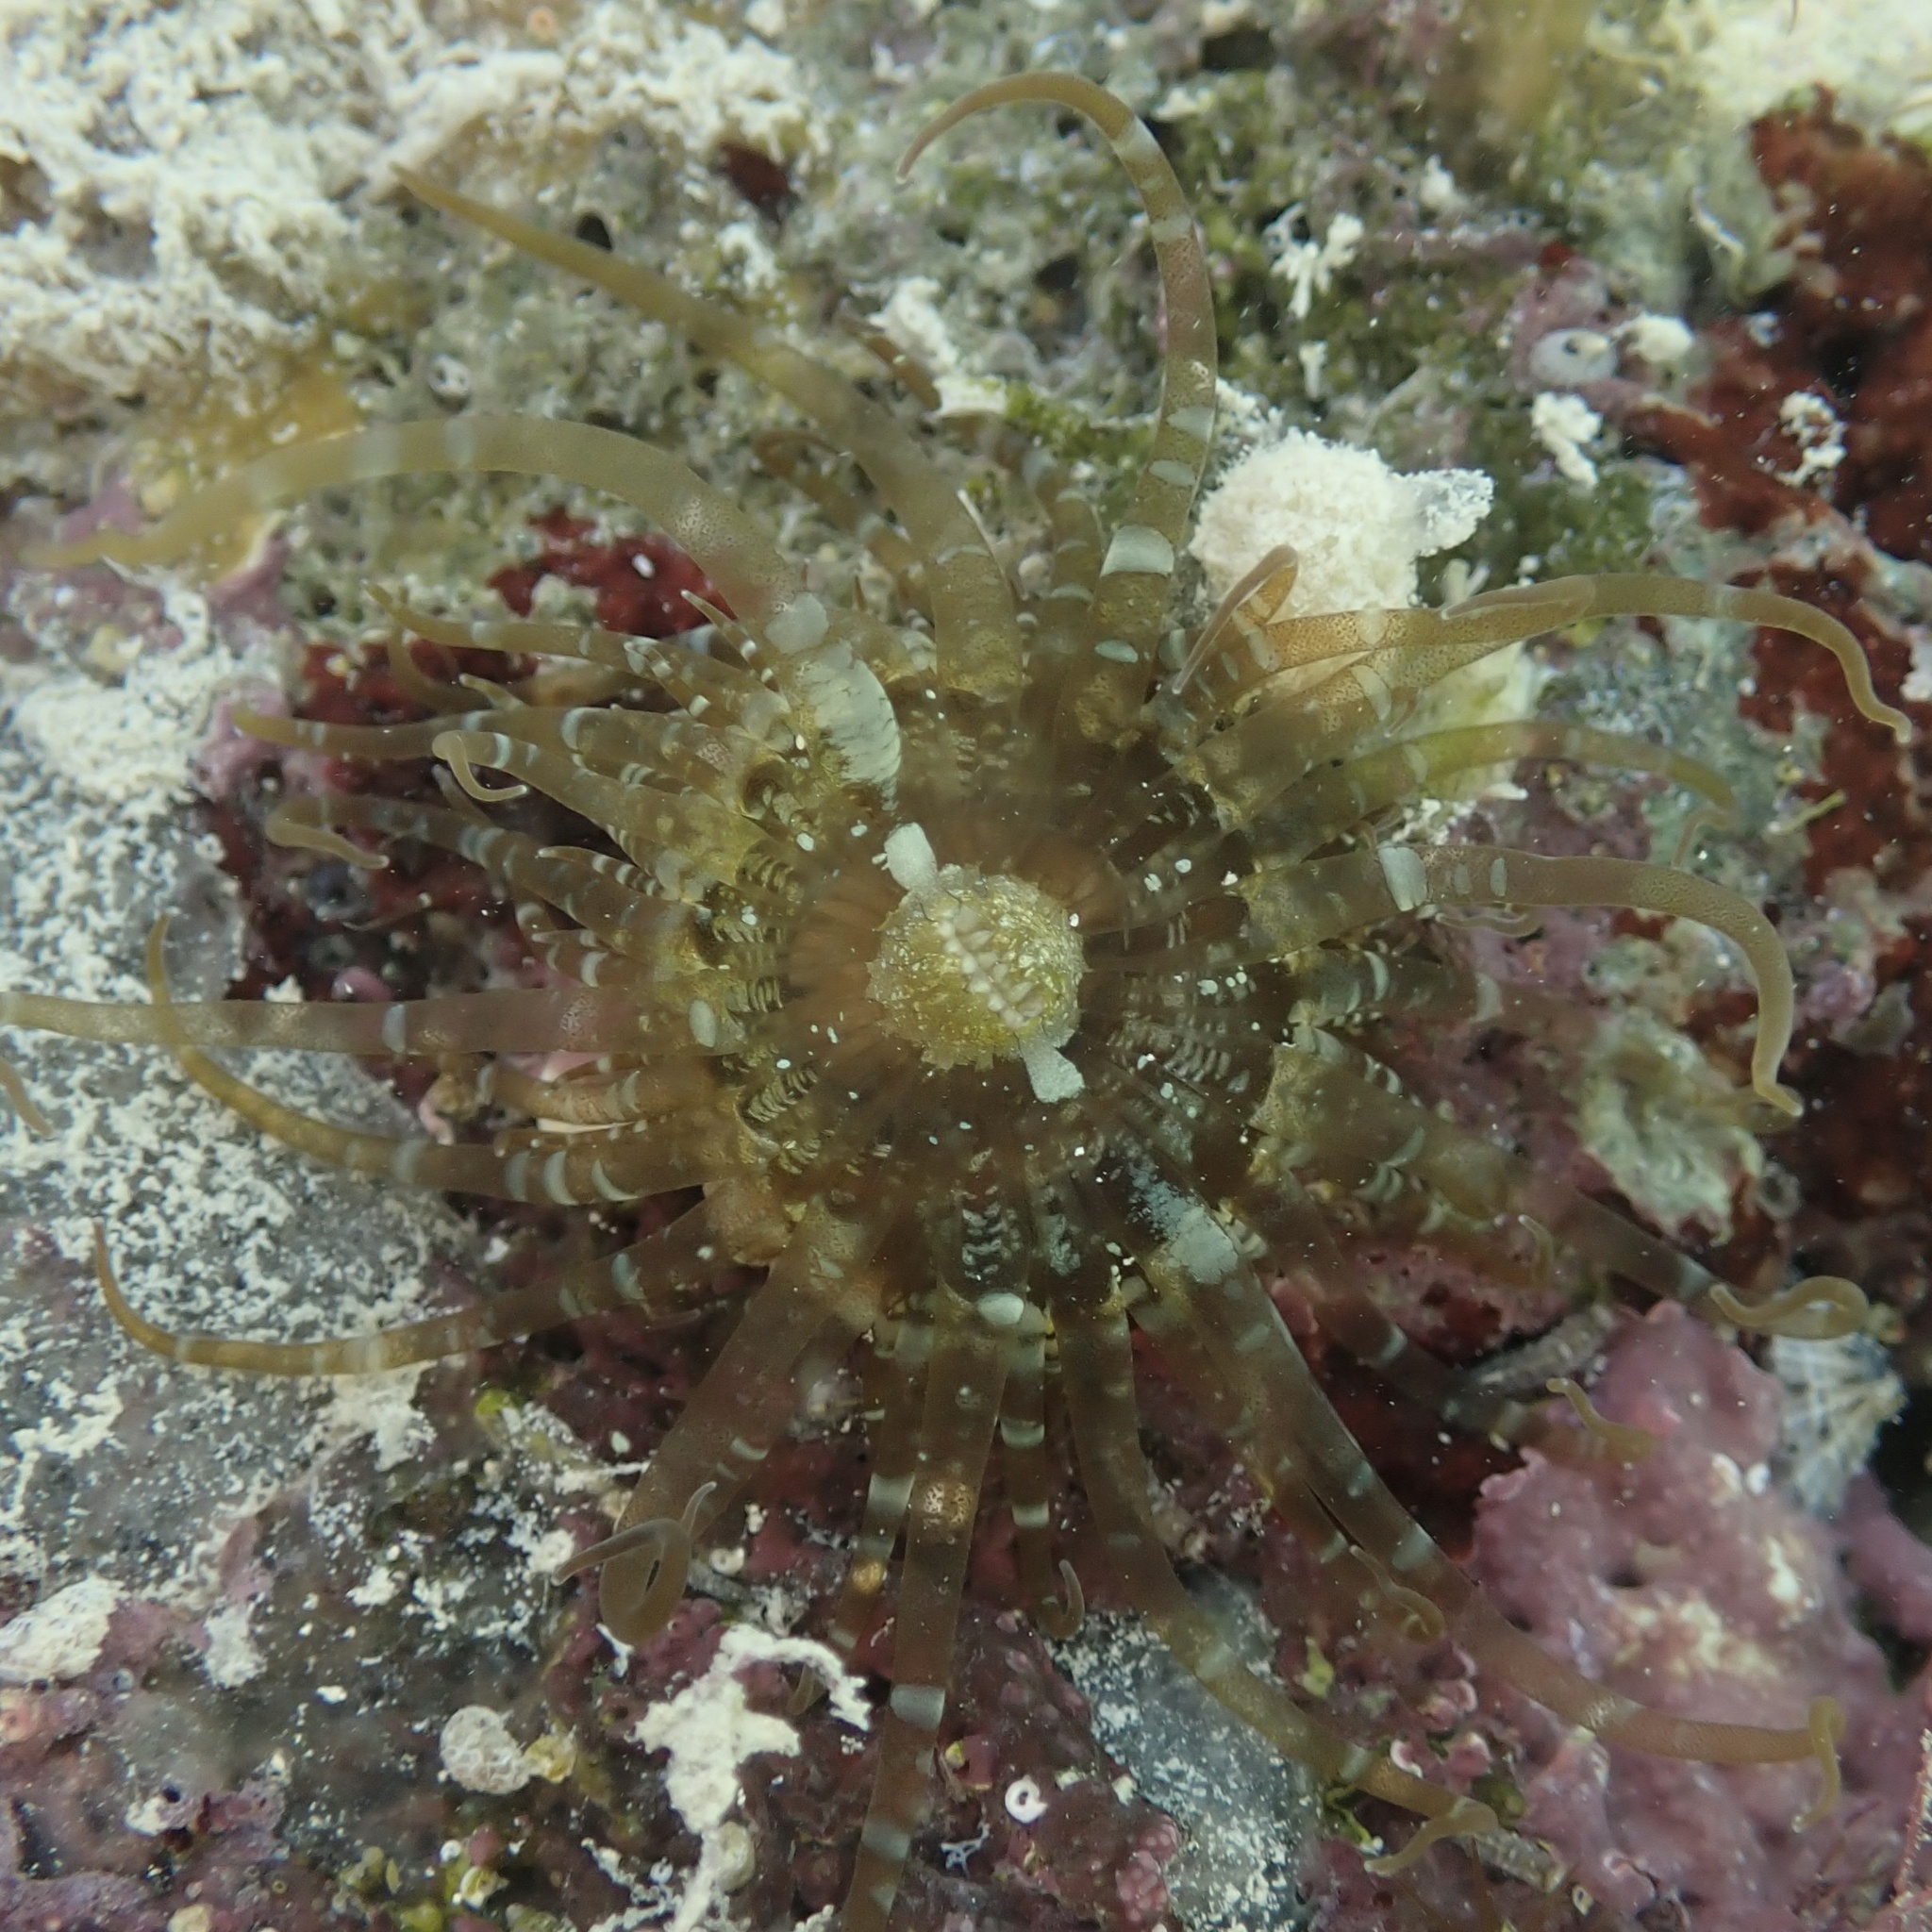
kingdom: Animalia
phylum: Cnidaria
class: Anthozoa
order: Actiniaria
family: Aiptasiidae
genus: Exaiptasia
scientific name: Exaiptasia diaphana
